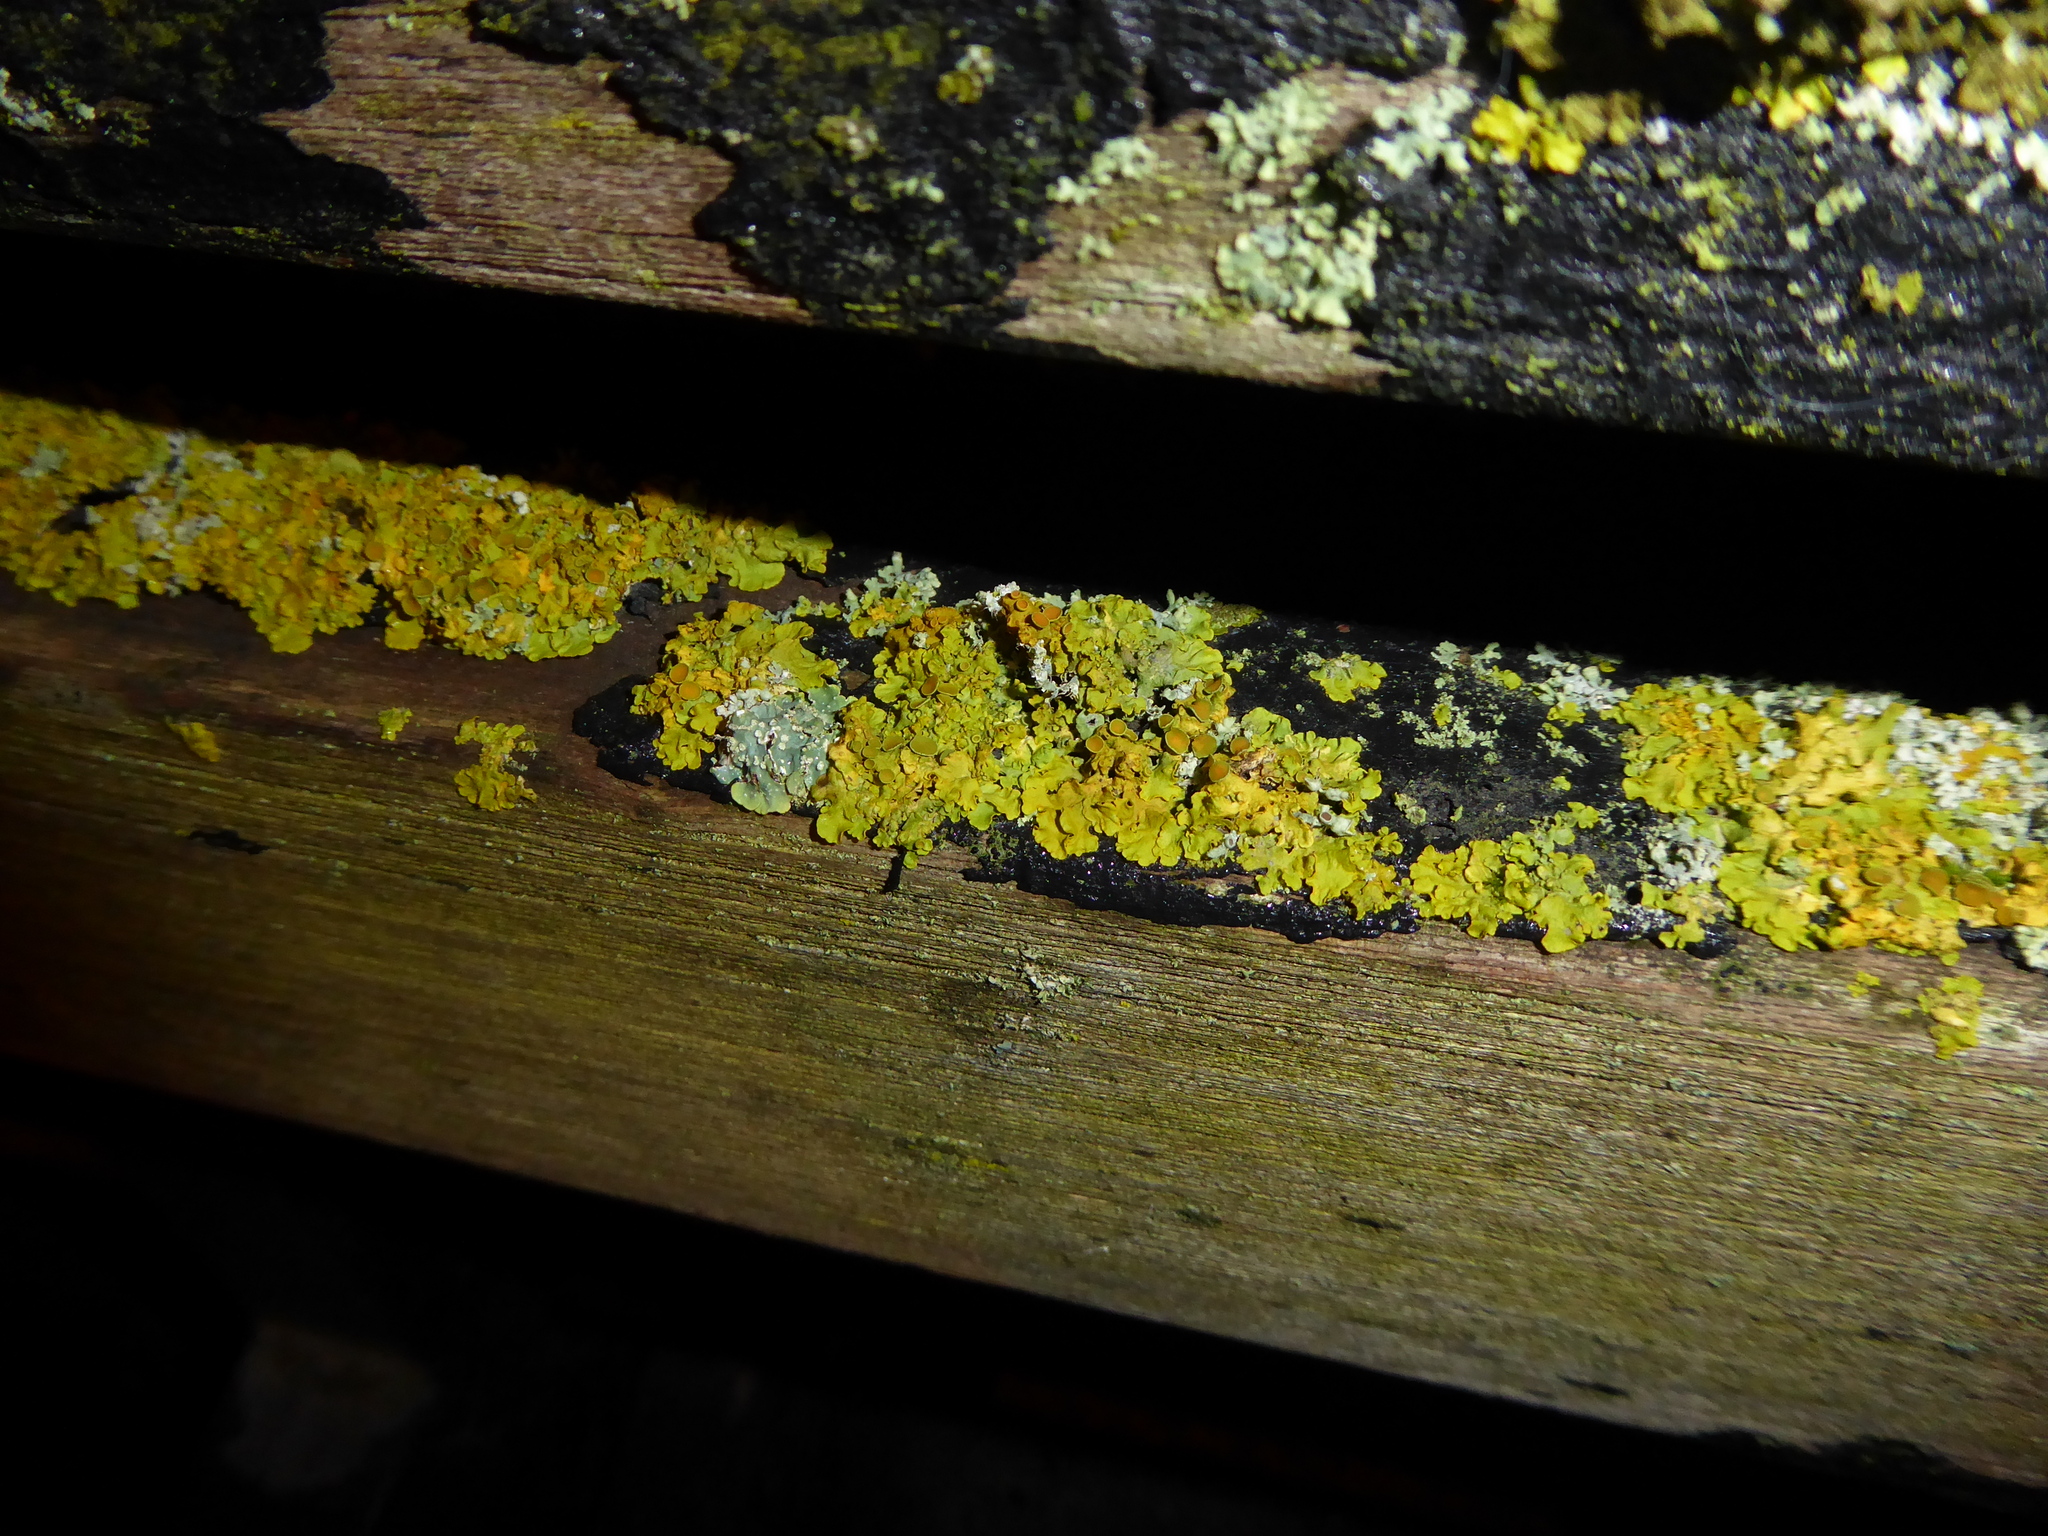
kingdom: Fungi
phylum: Ascomycota
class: Lecanoromycetes
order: Teloschistales
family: Teloschistaceae
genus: Xanthoria
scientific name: Xanthoria parietina
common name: Common orange lichen
